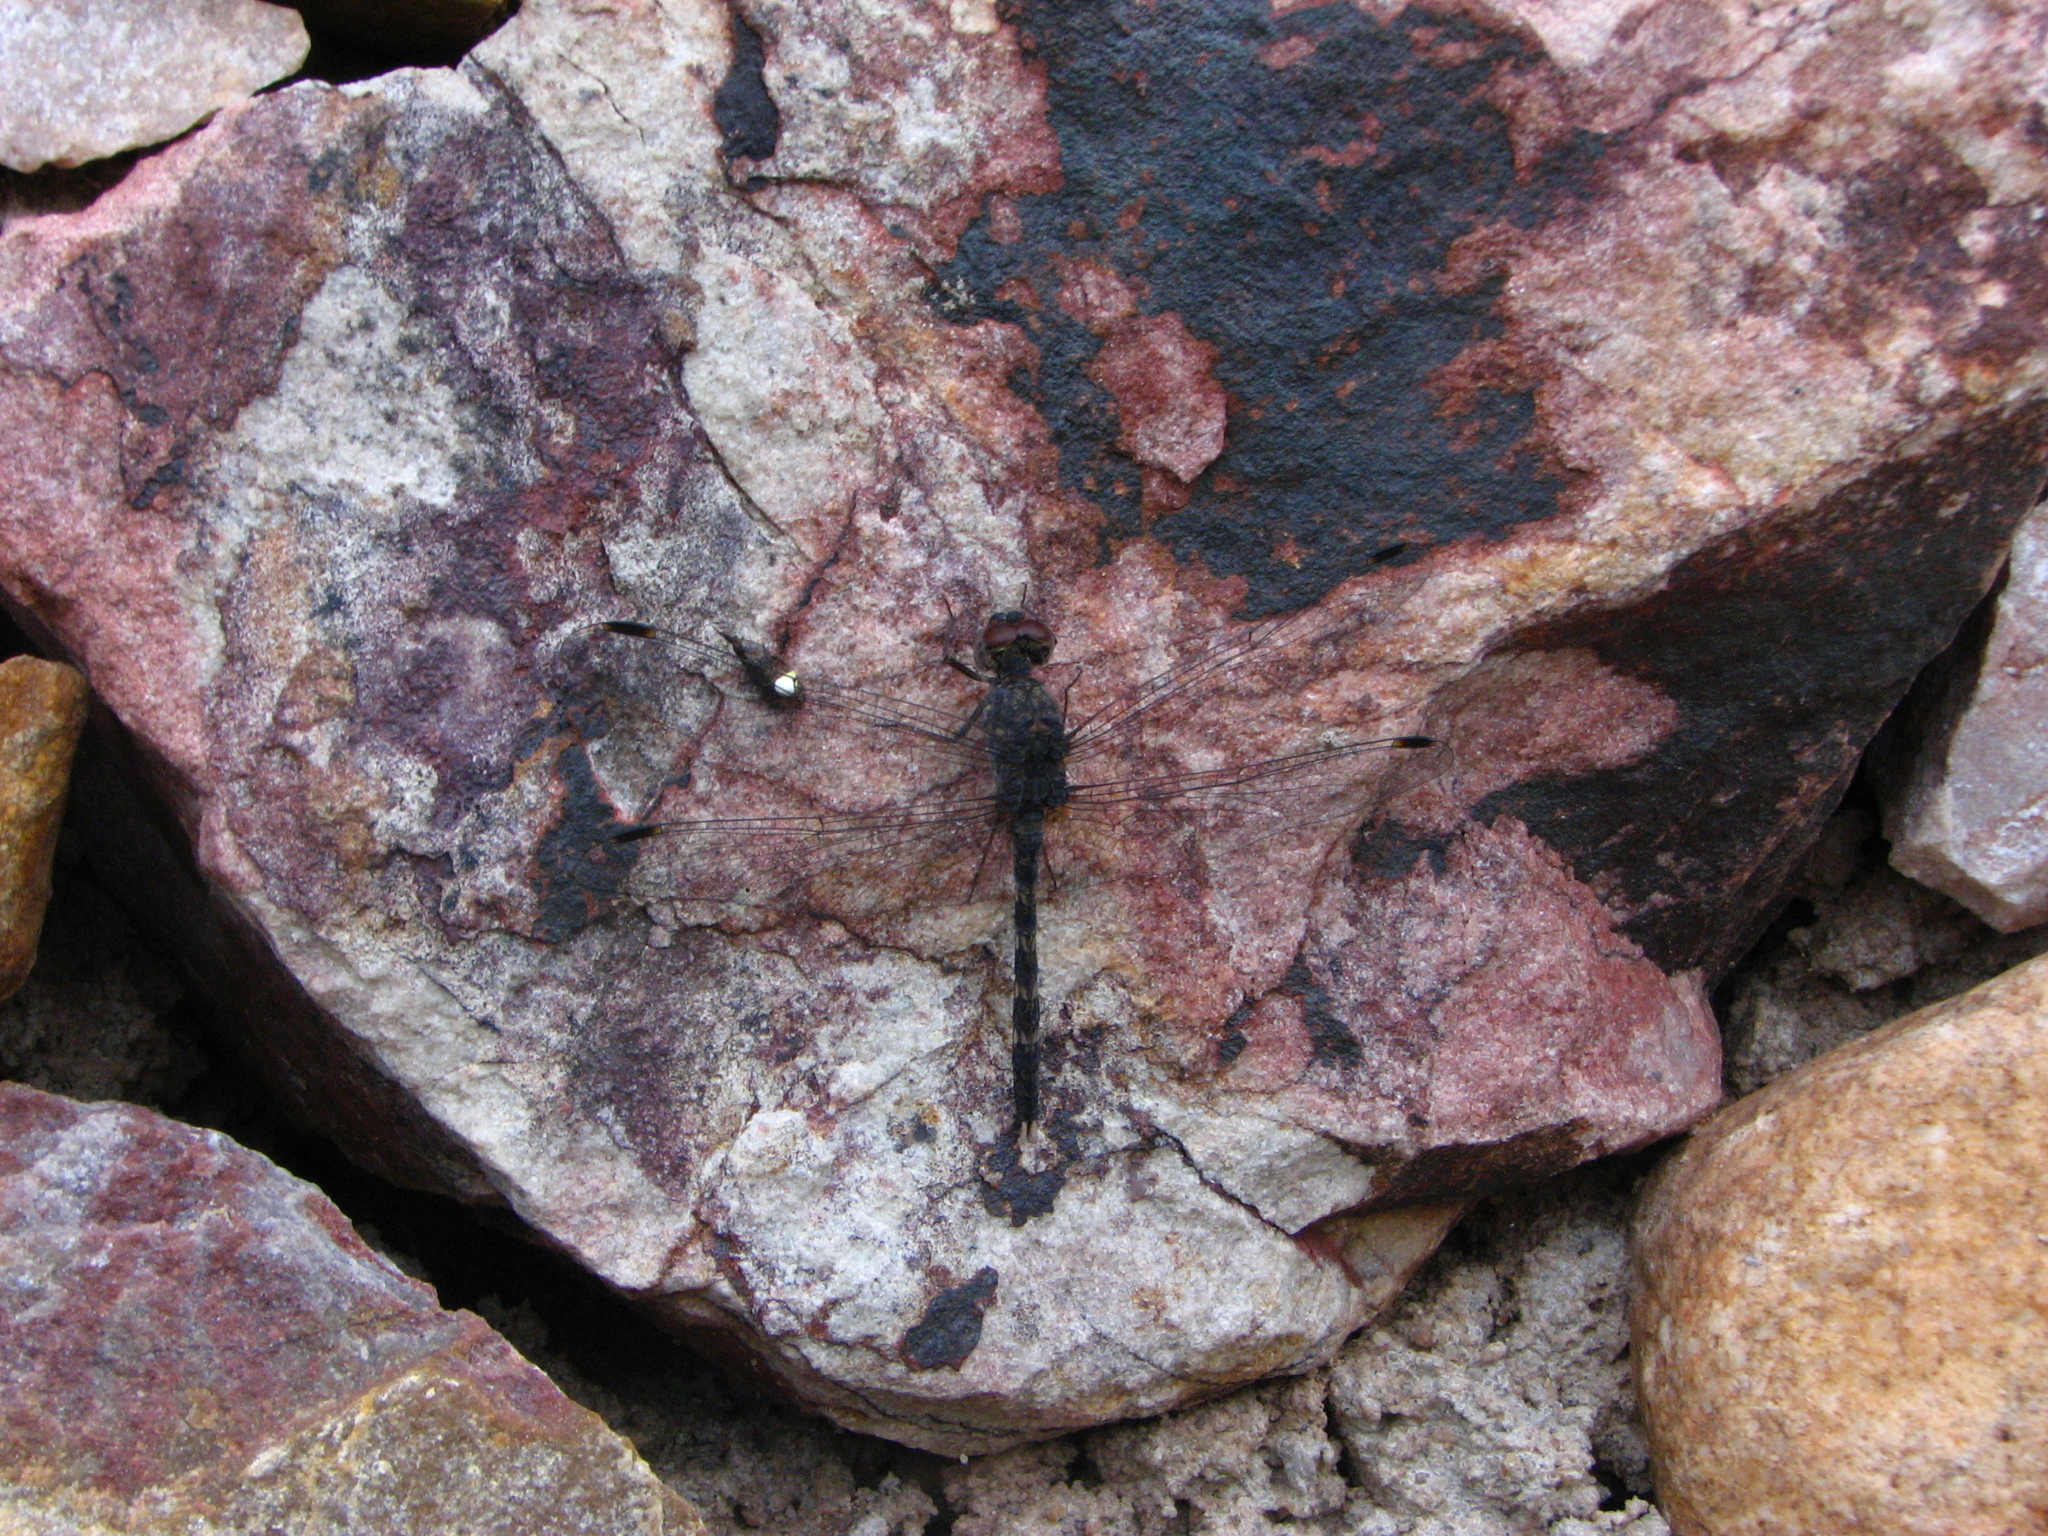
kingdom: Animalia
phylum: Arthropoda
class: Insecta
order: Odonata
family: Libellulidae
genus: Bradinopyga
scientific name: Bradinopyga geminata
